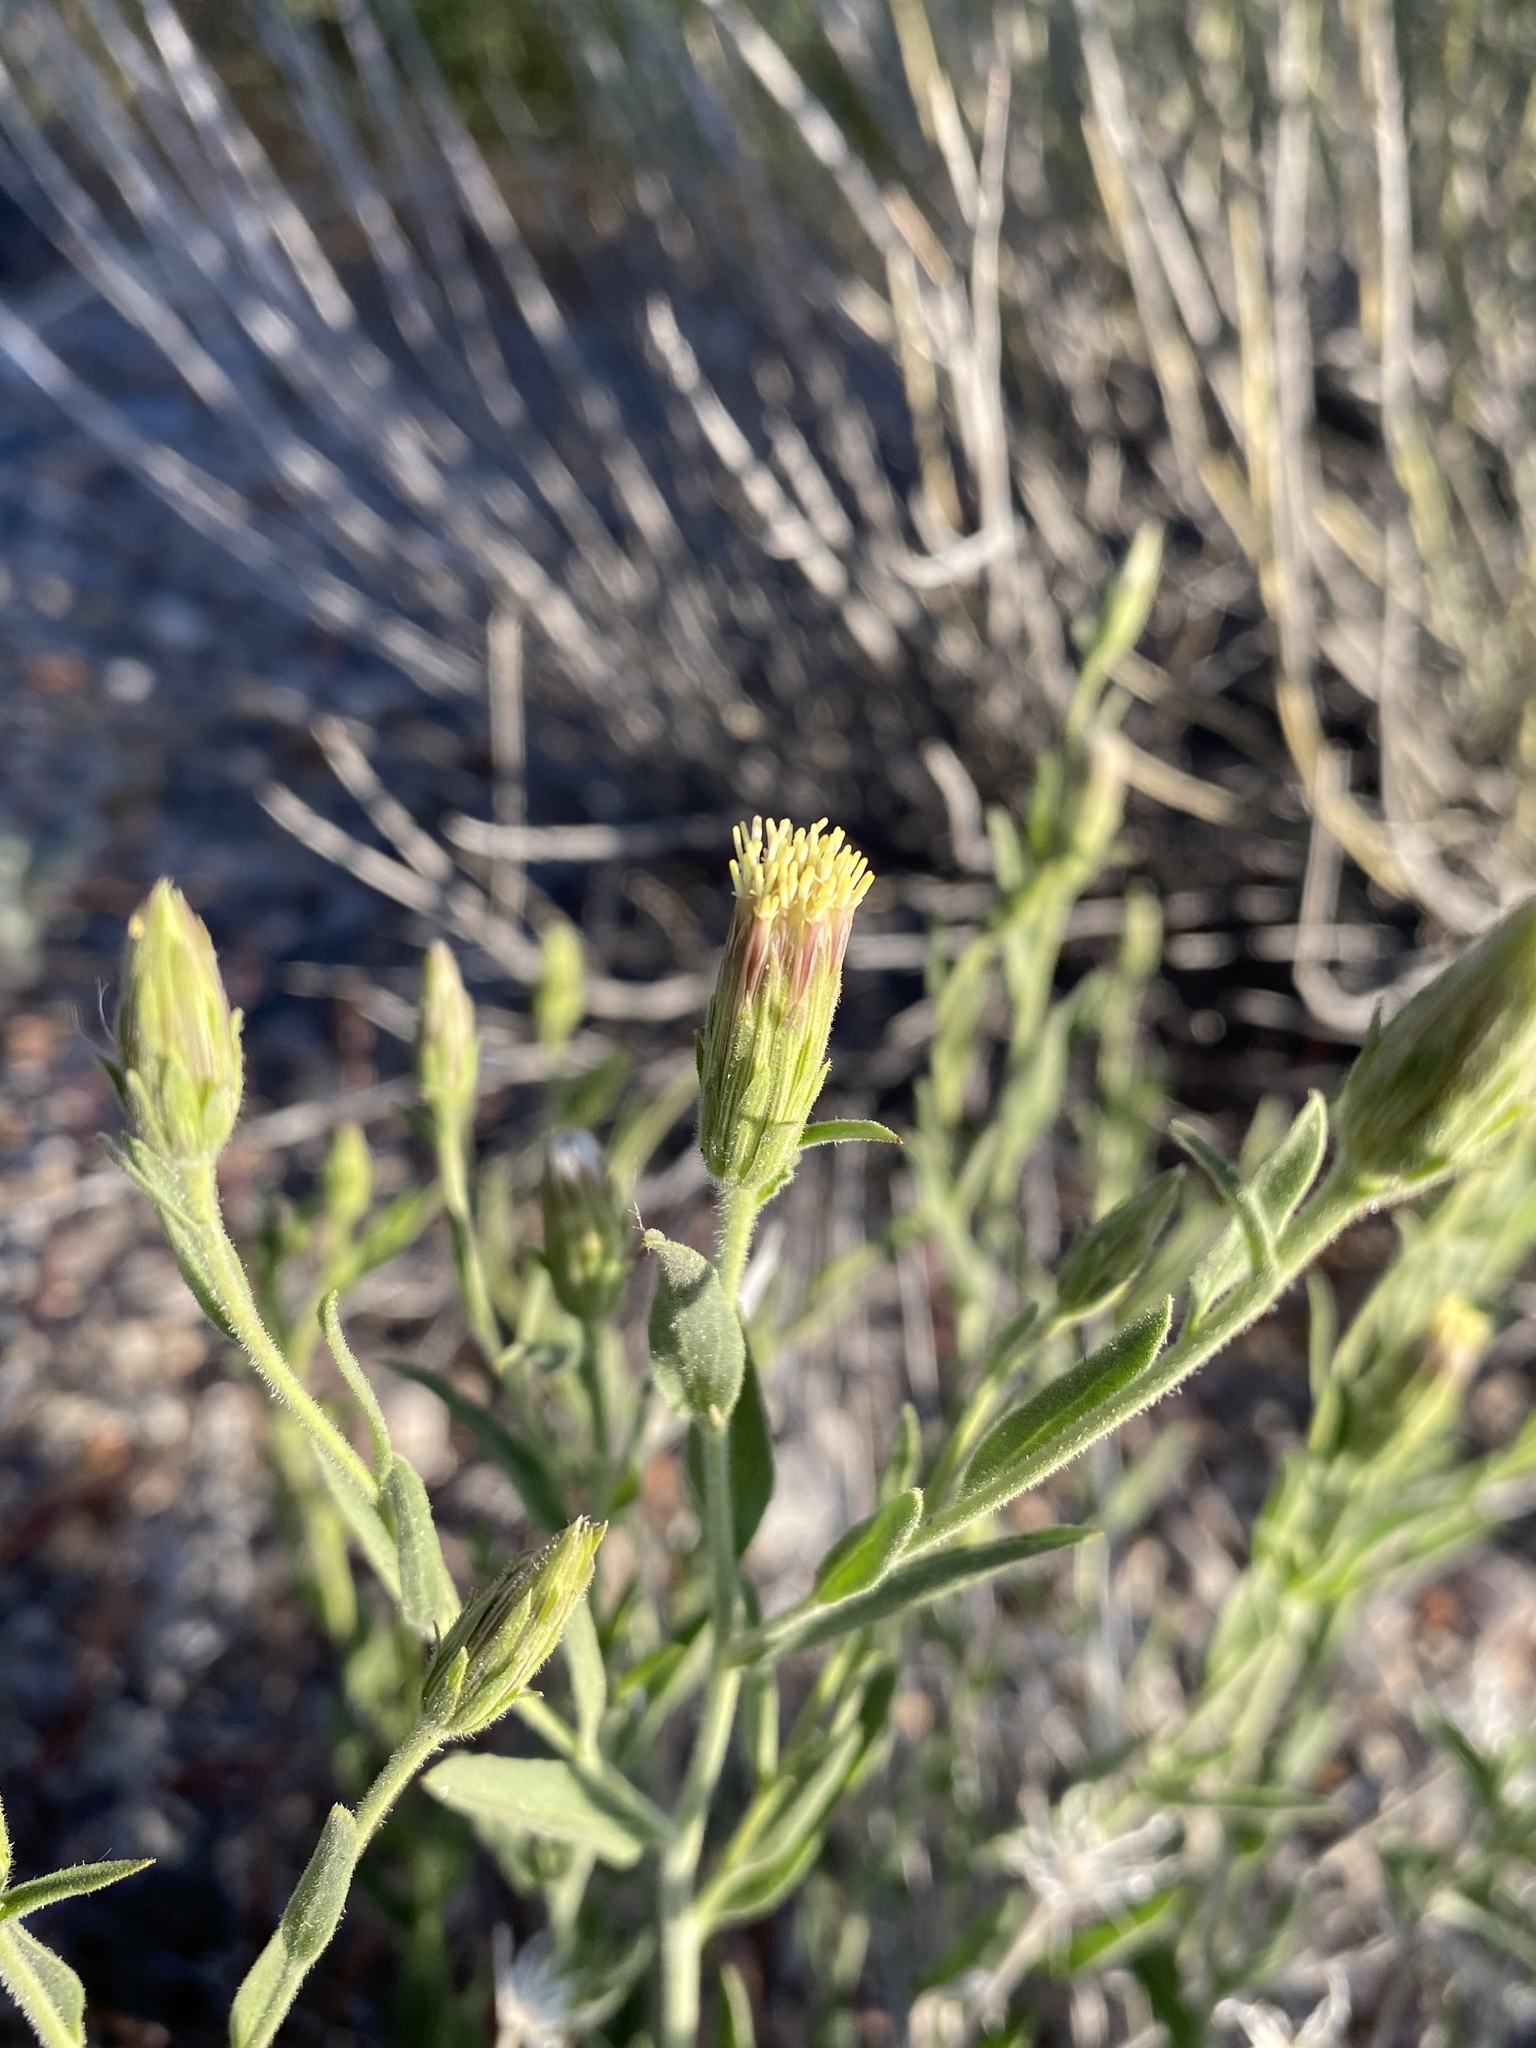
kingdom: Plantae
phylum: Tracheophyta
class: Magnoliopsida
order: Asterales
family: Asteraceae
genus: Brickellia
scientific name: Brickellia oblongifolia
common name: Mojave brickellbush
